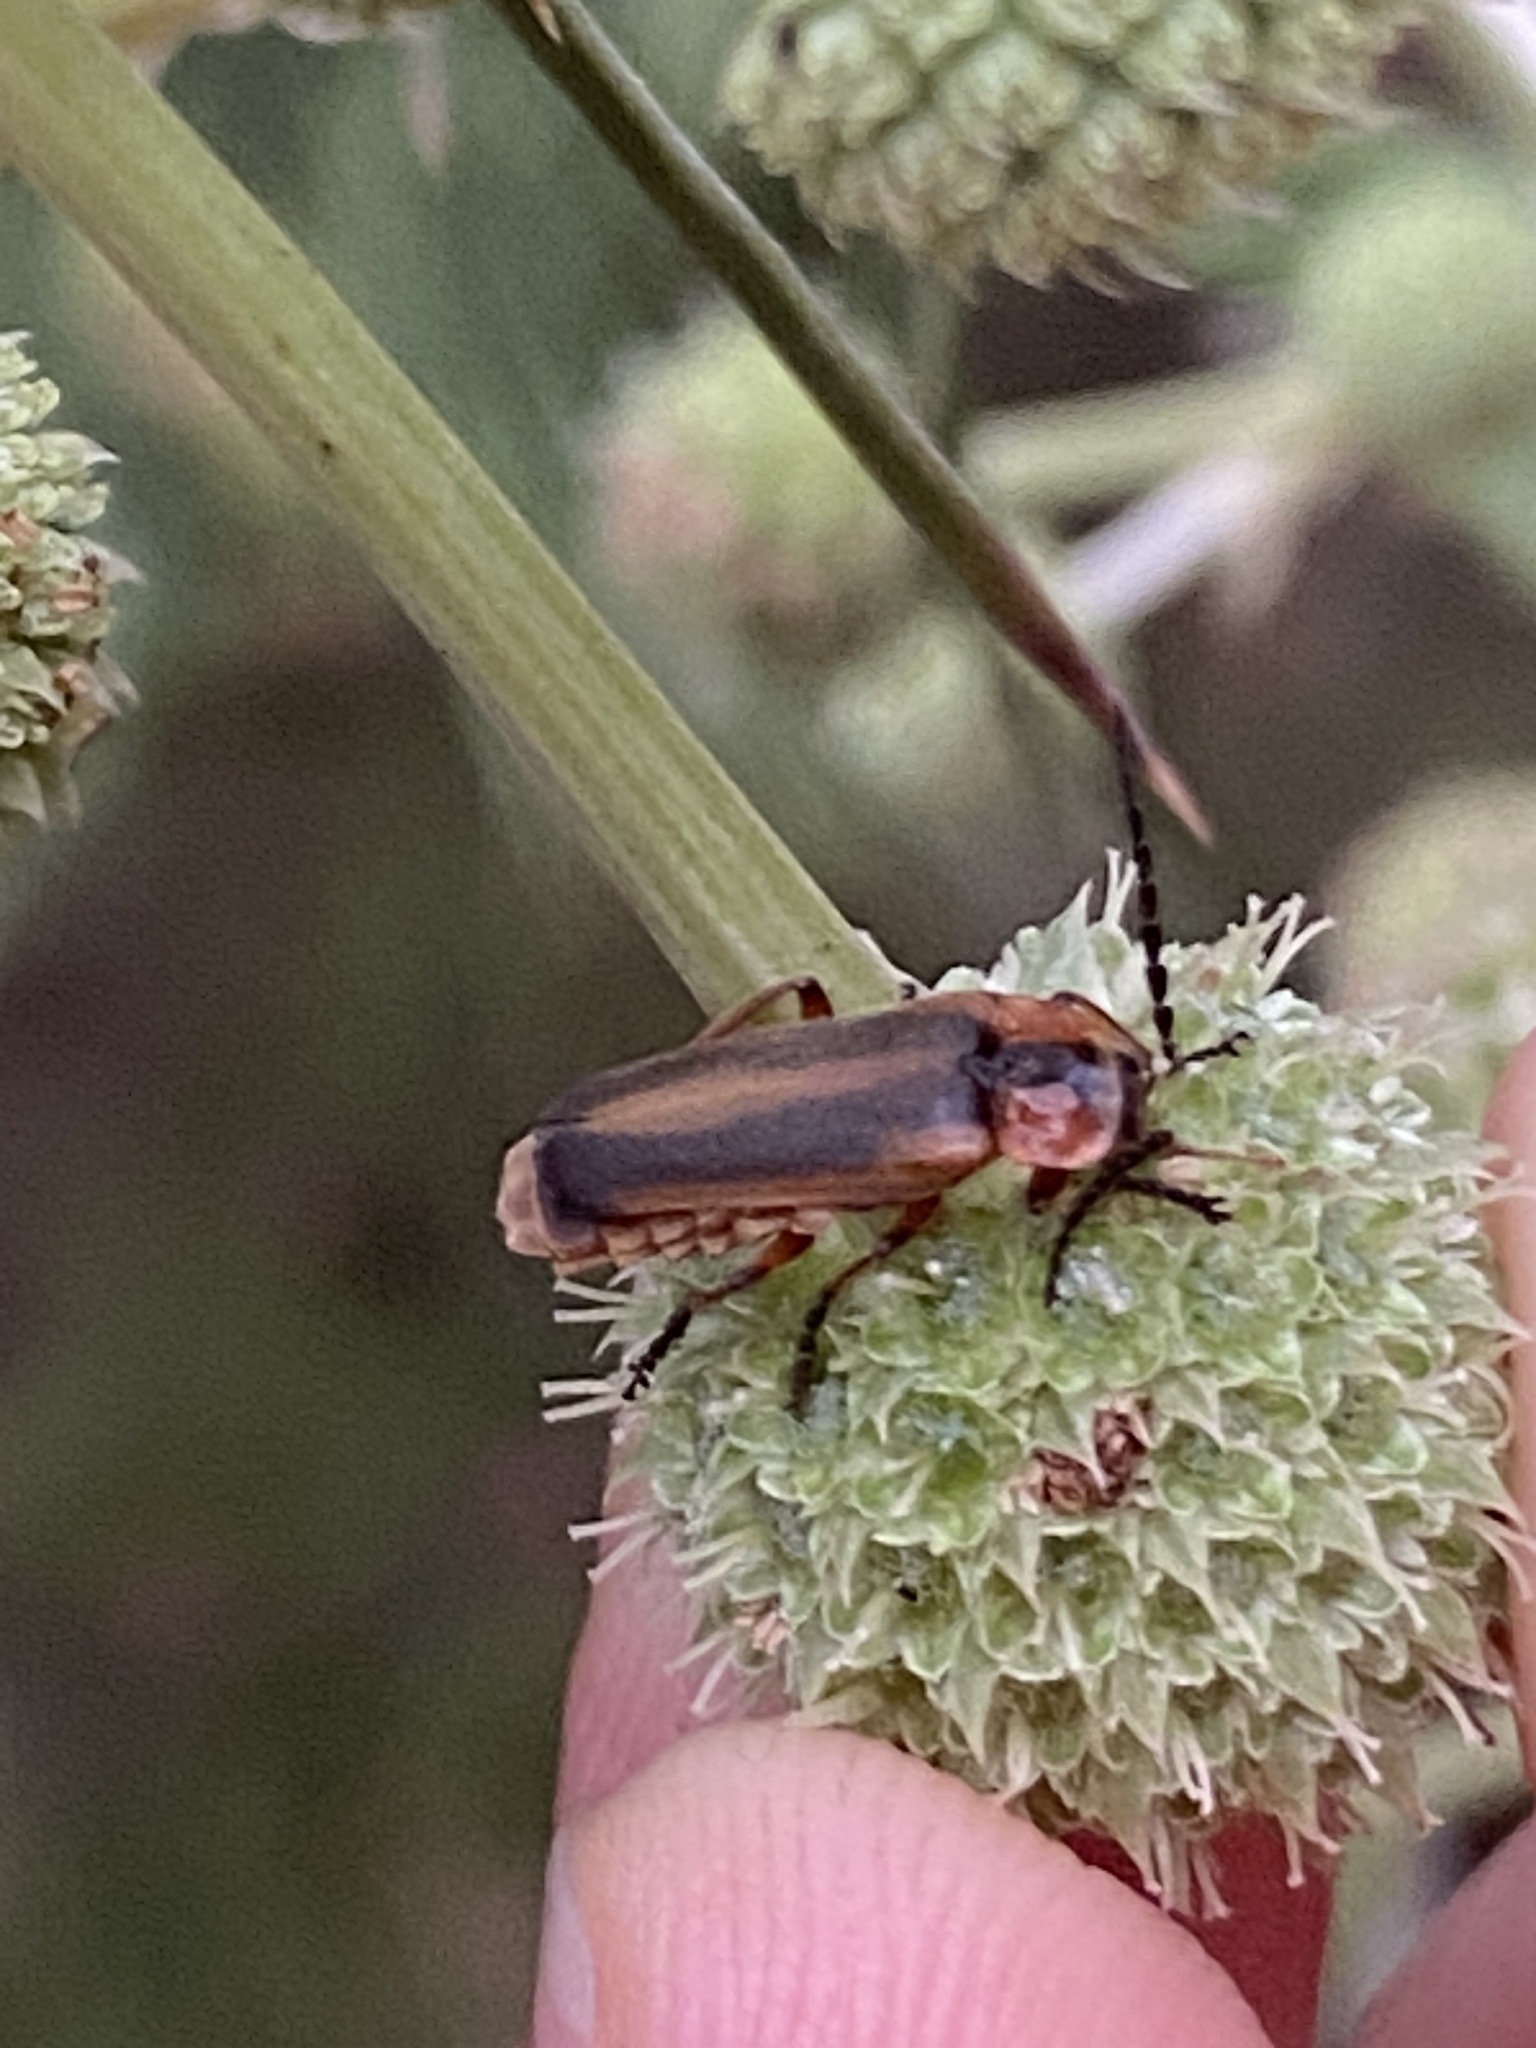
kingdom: Animalia
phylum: Arthropoda
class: Insecta
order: Coleoptera
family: Cantharidae
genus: Discodon
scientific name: Discodon
